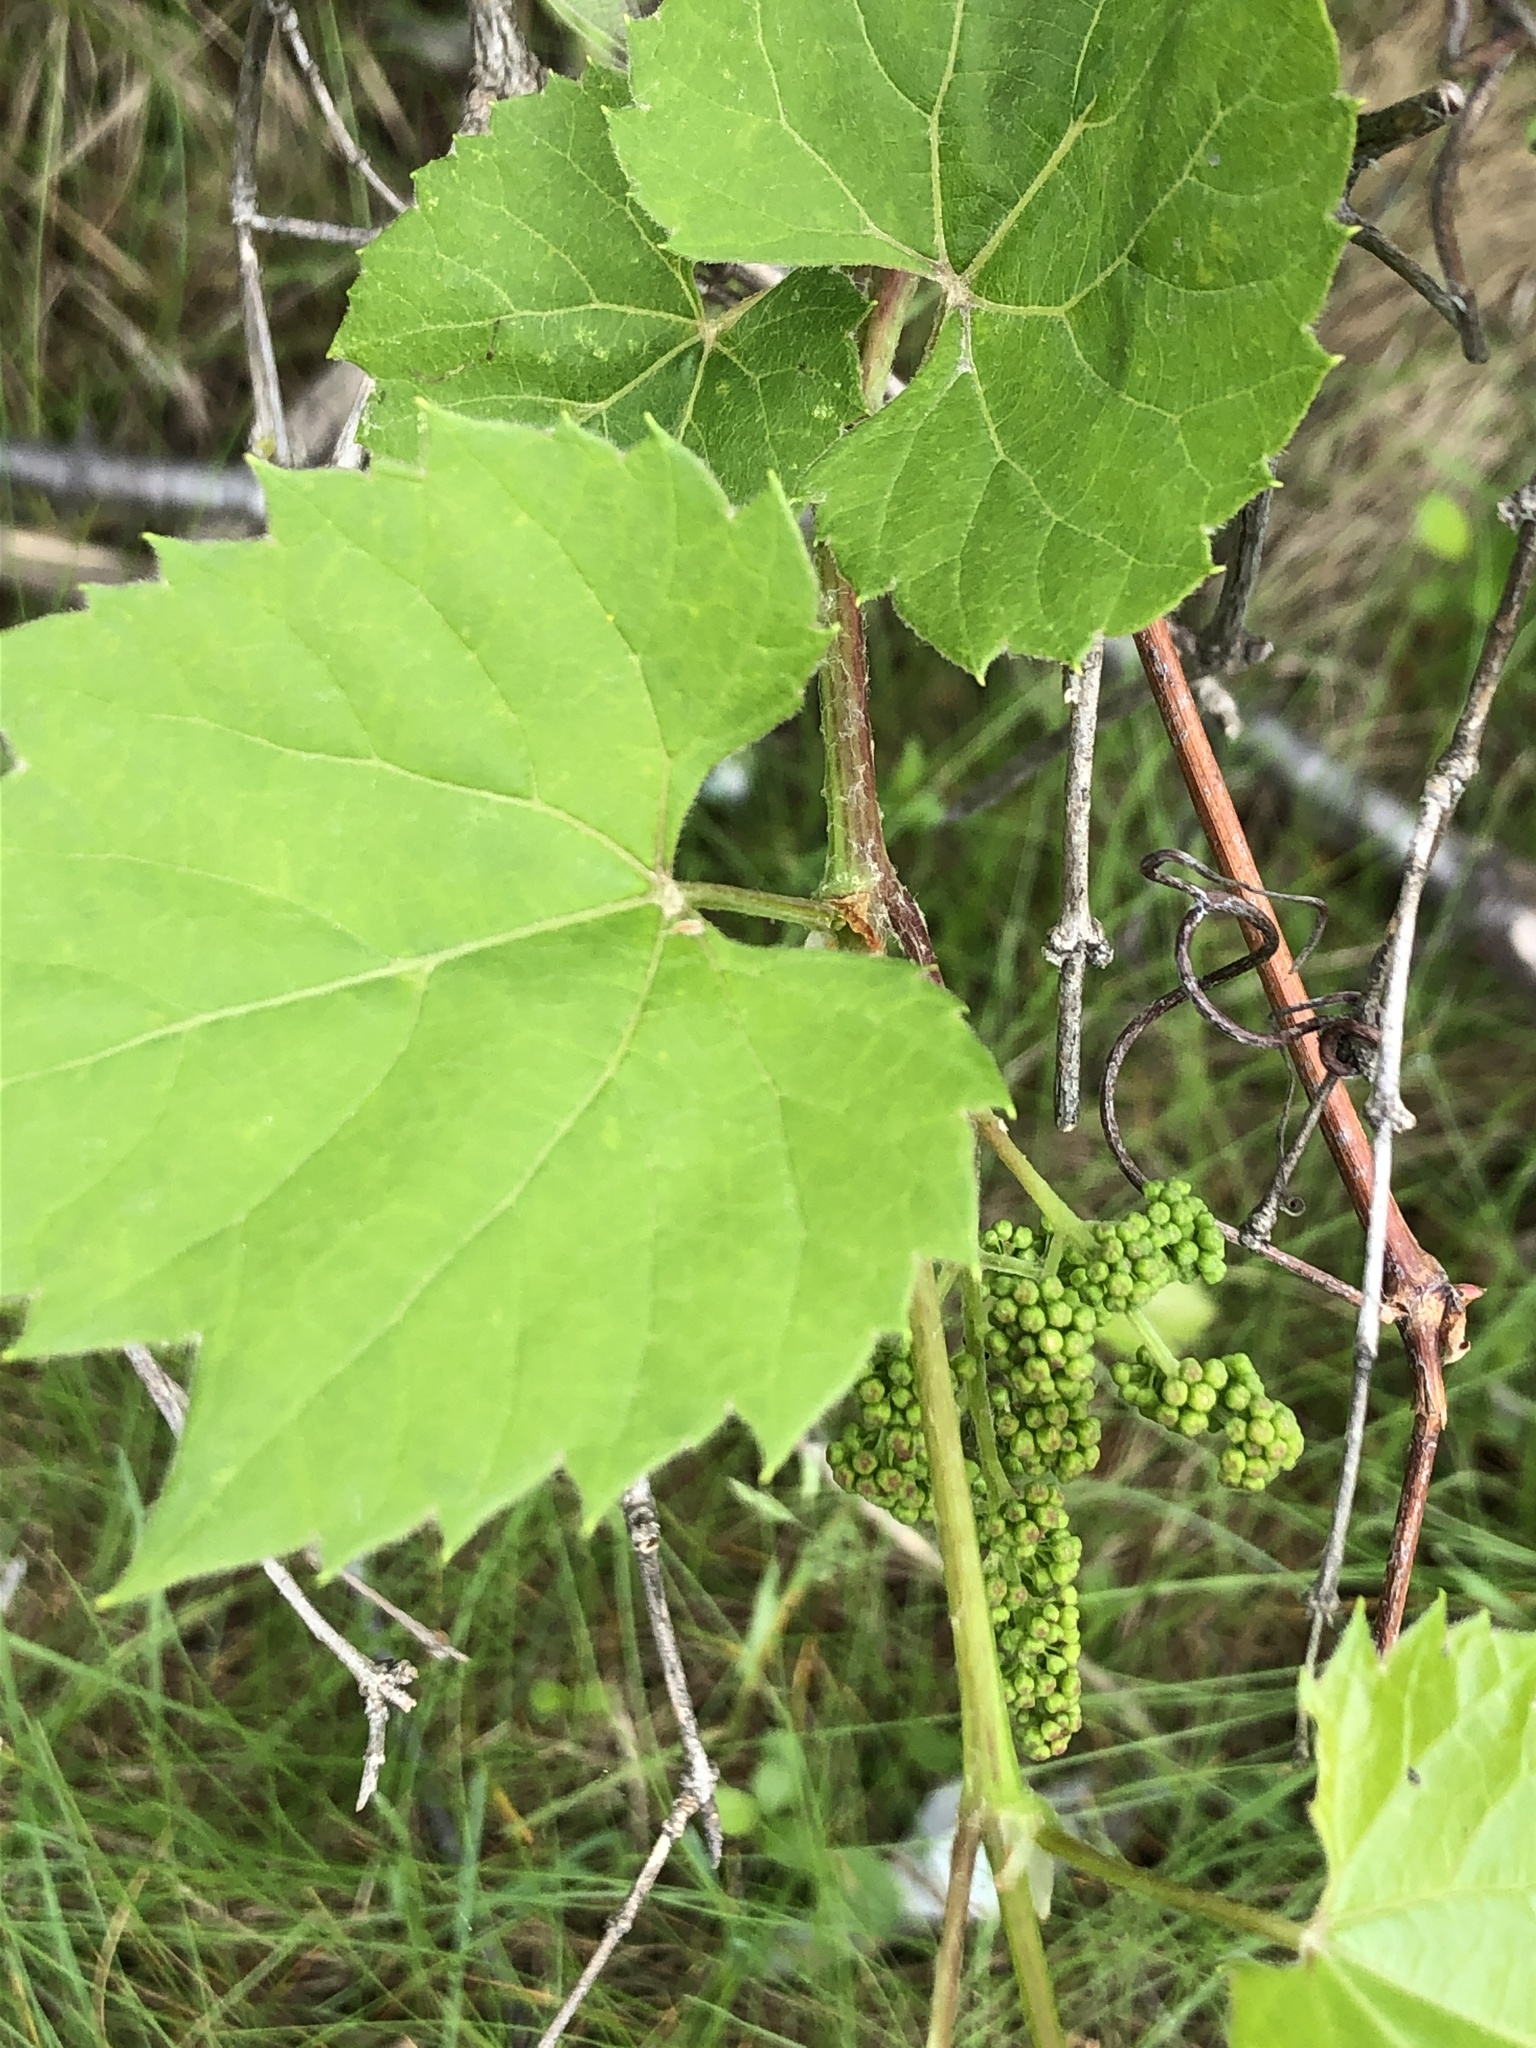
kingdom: Plantae
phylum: Tracheophyta
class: Magnoliopsida
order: Vitales
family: Vitaceae
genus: Vitis
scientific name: Vitis riparia
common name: Frost grape
